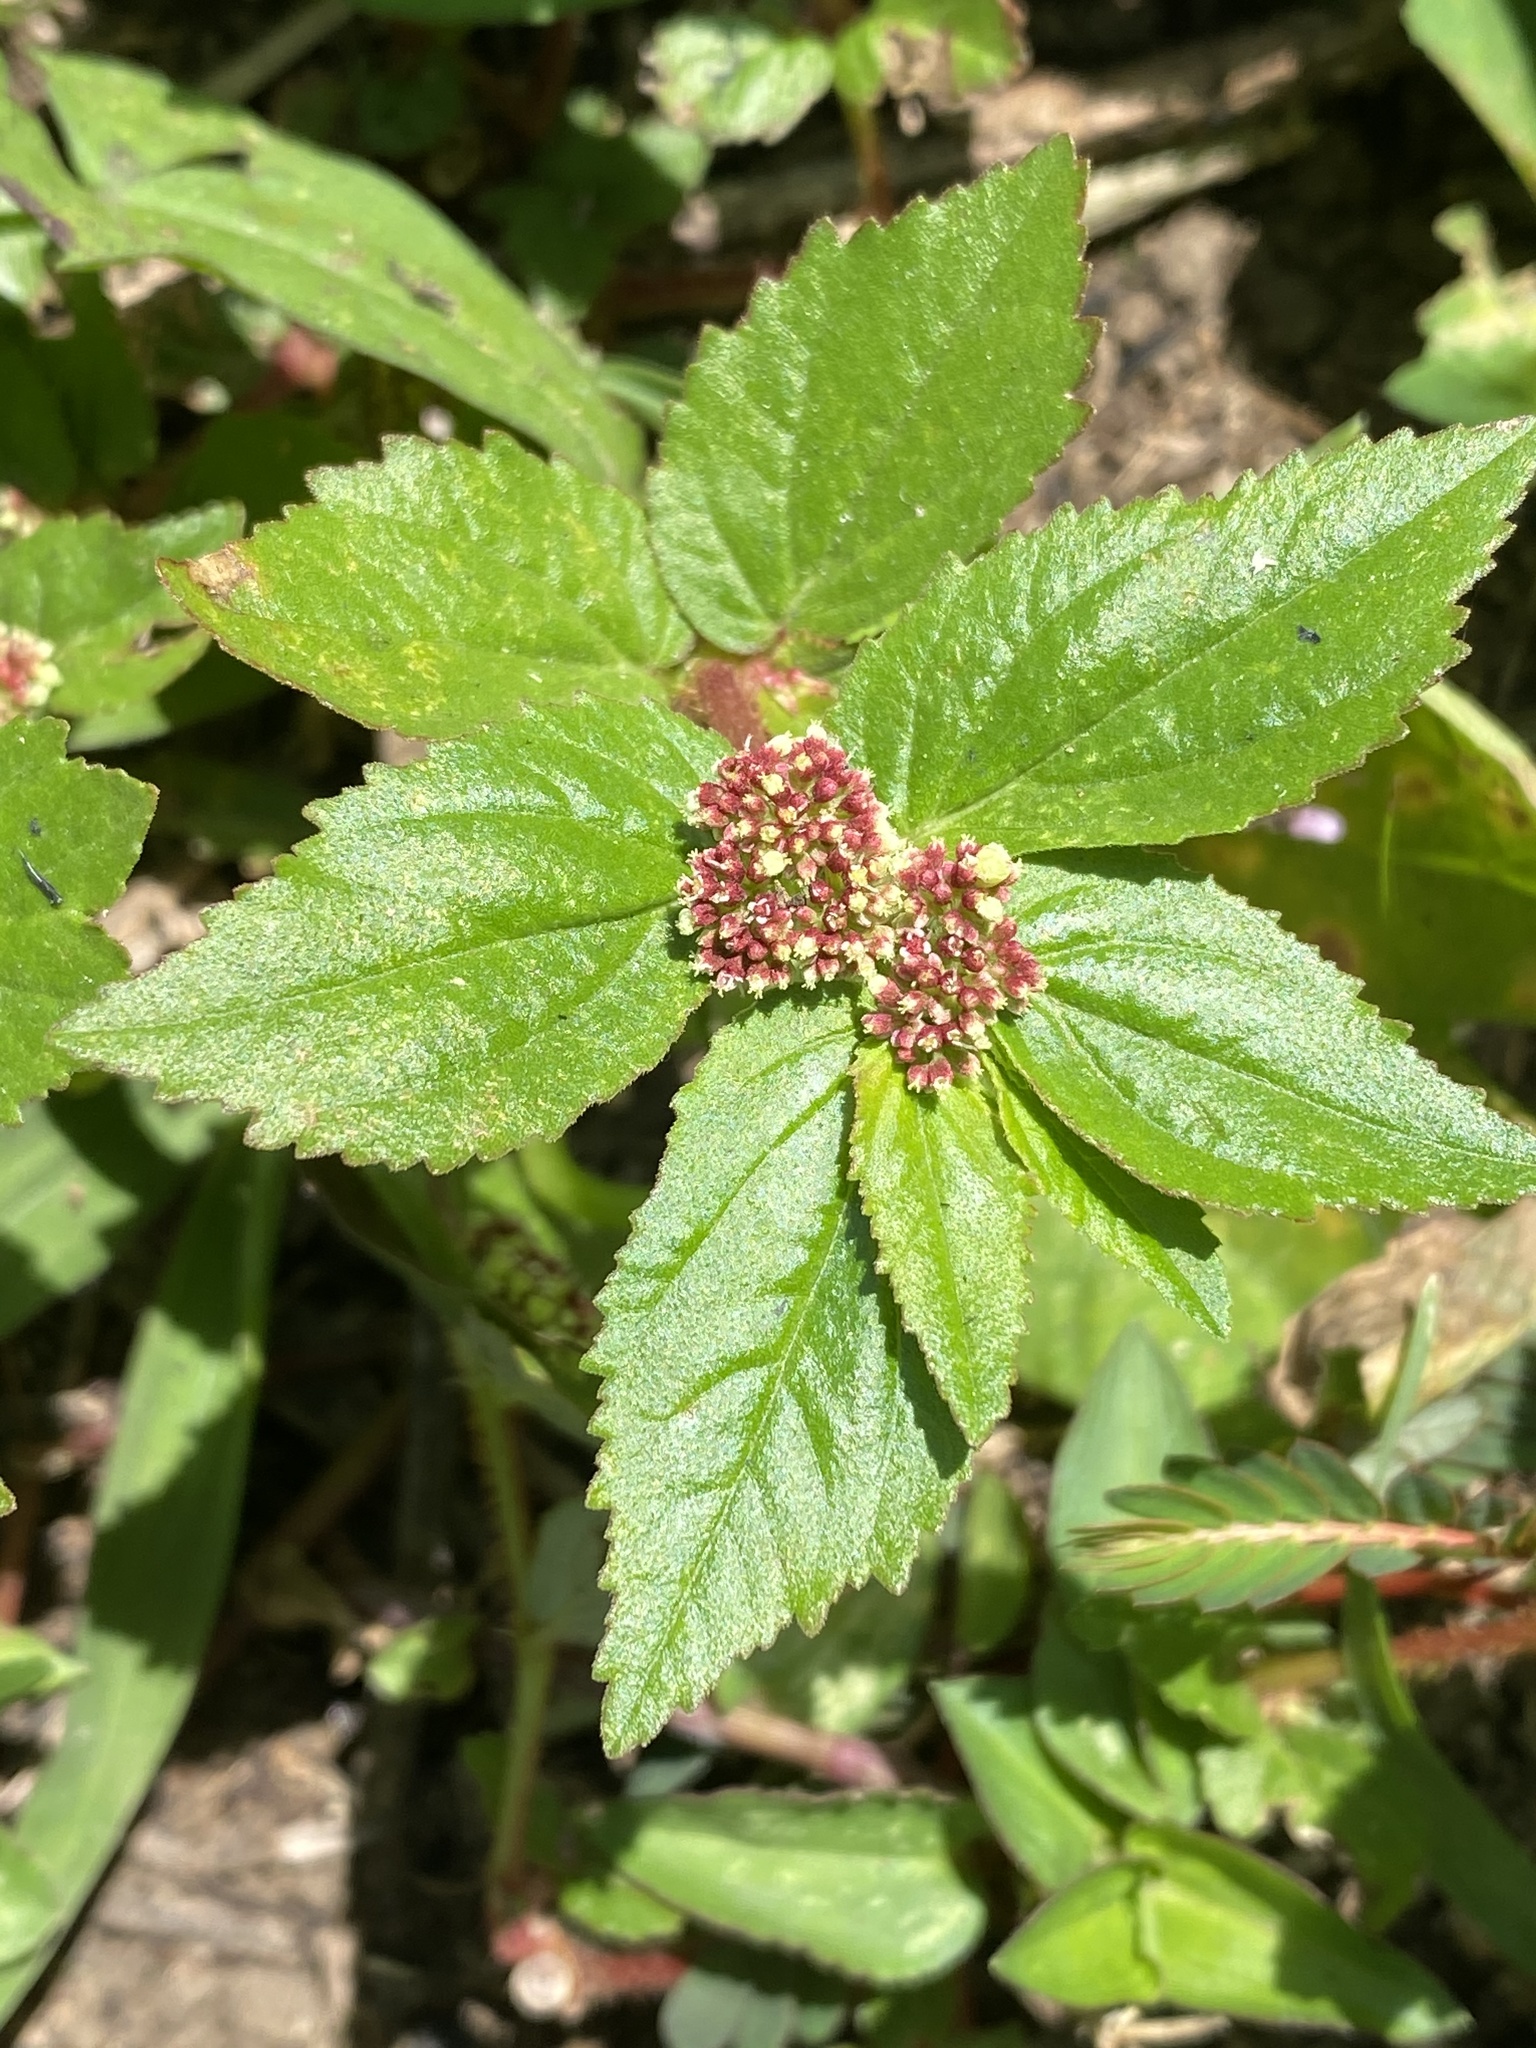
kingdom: Plantae
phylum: Tracheophyta
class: Magnoliopsida
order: Malpighiales
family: Euphorbiaceae
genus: Euphorbia
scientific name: Euphorbia hirta
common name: Pillpod sandmat
